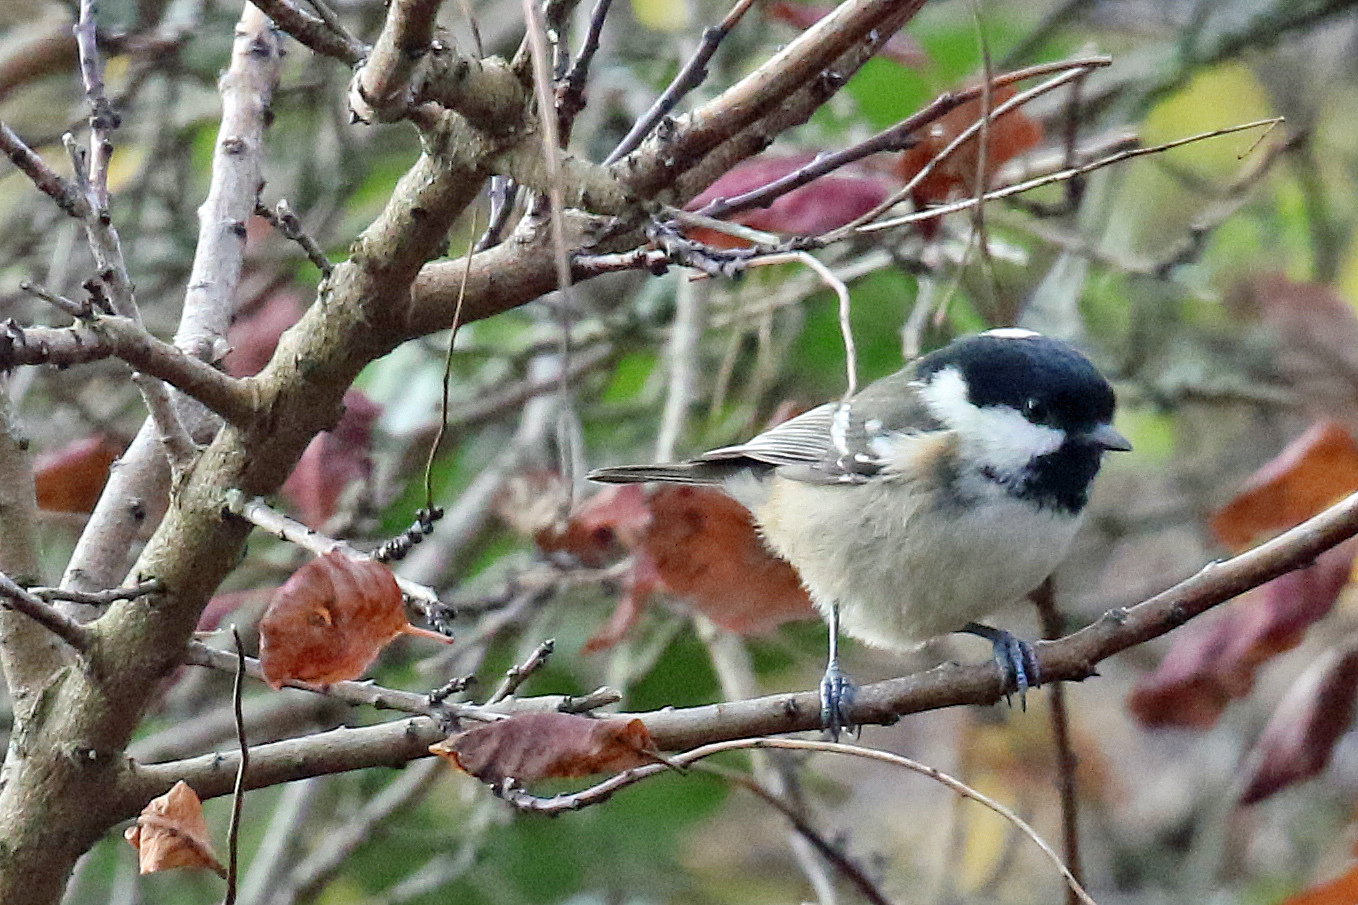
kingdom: Animalia
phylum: Chordata
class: Aves
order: Passeriformes
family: Paridae
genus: Periparus
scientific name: Periparus ater
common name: Coal tit
